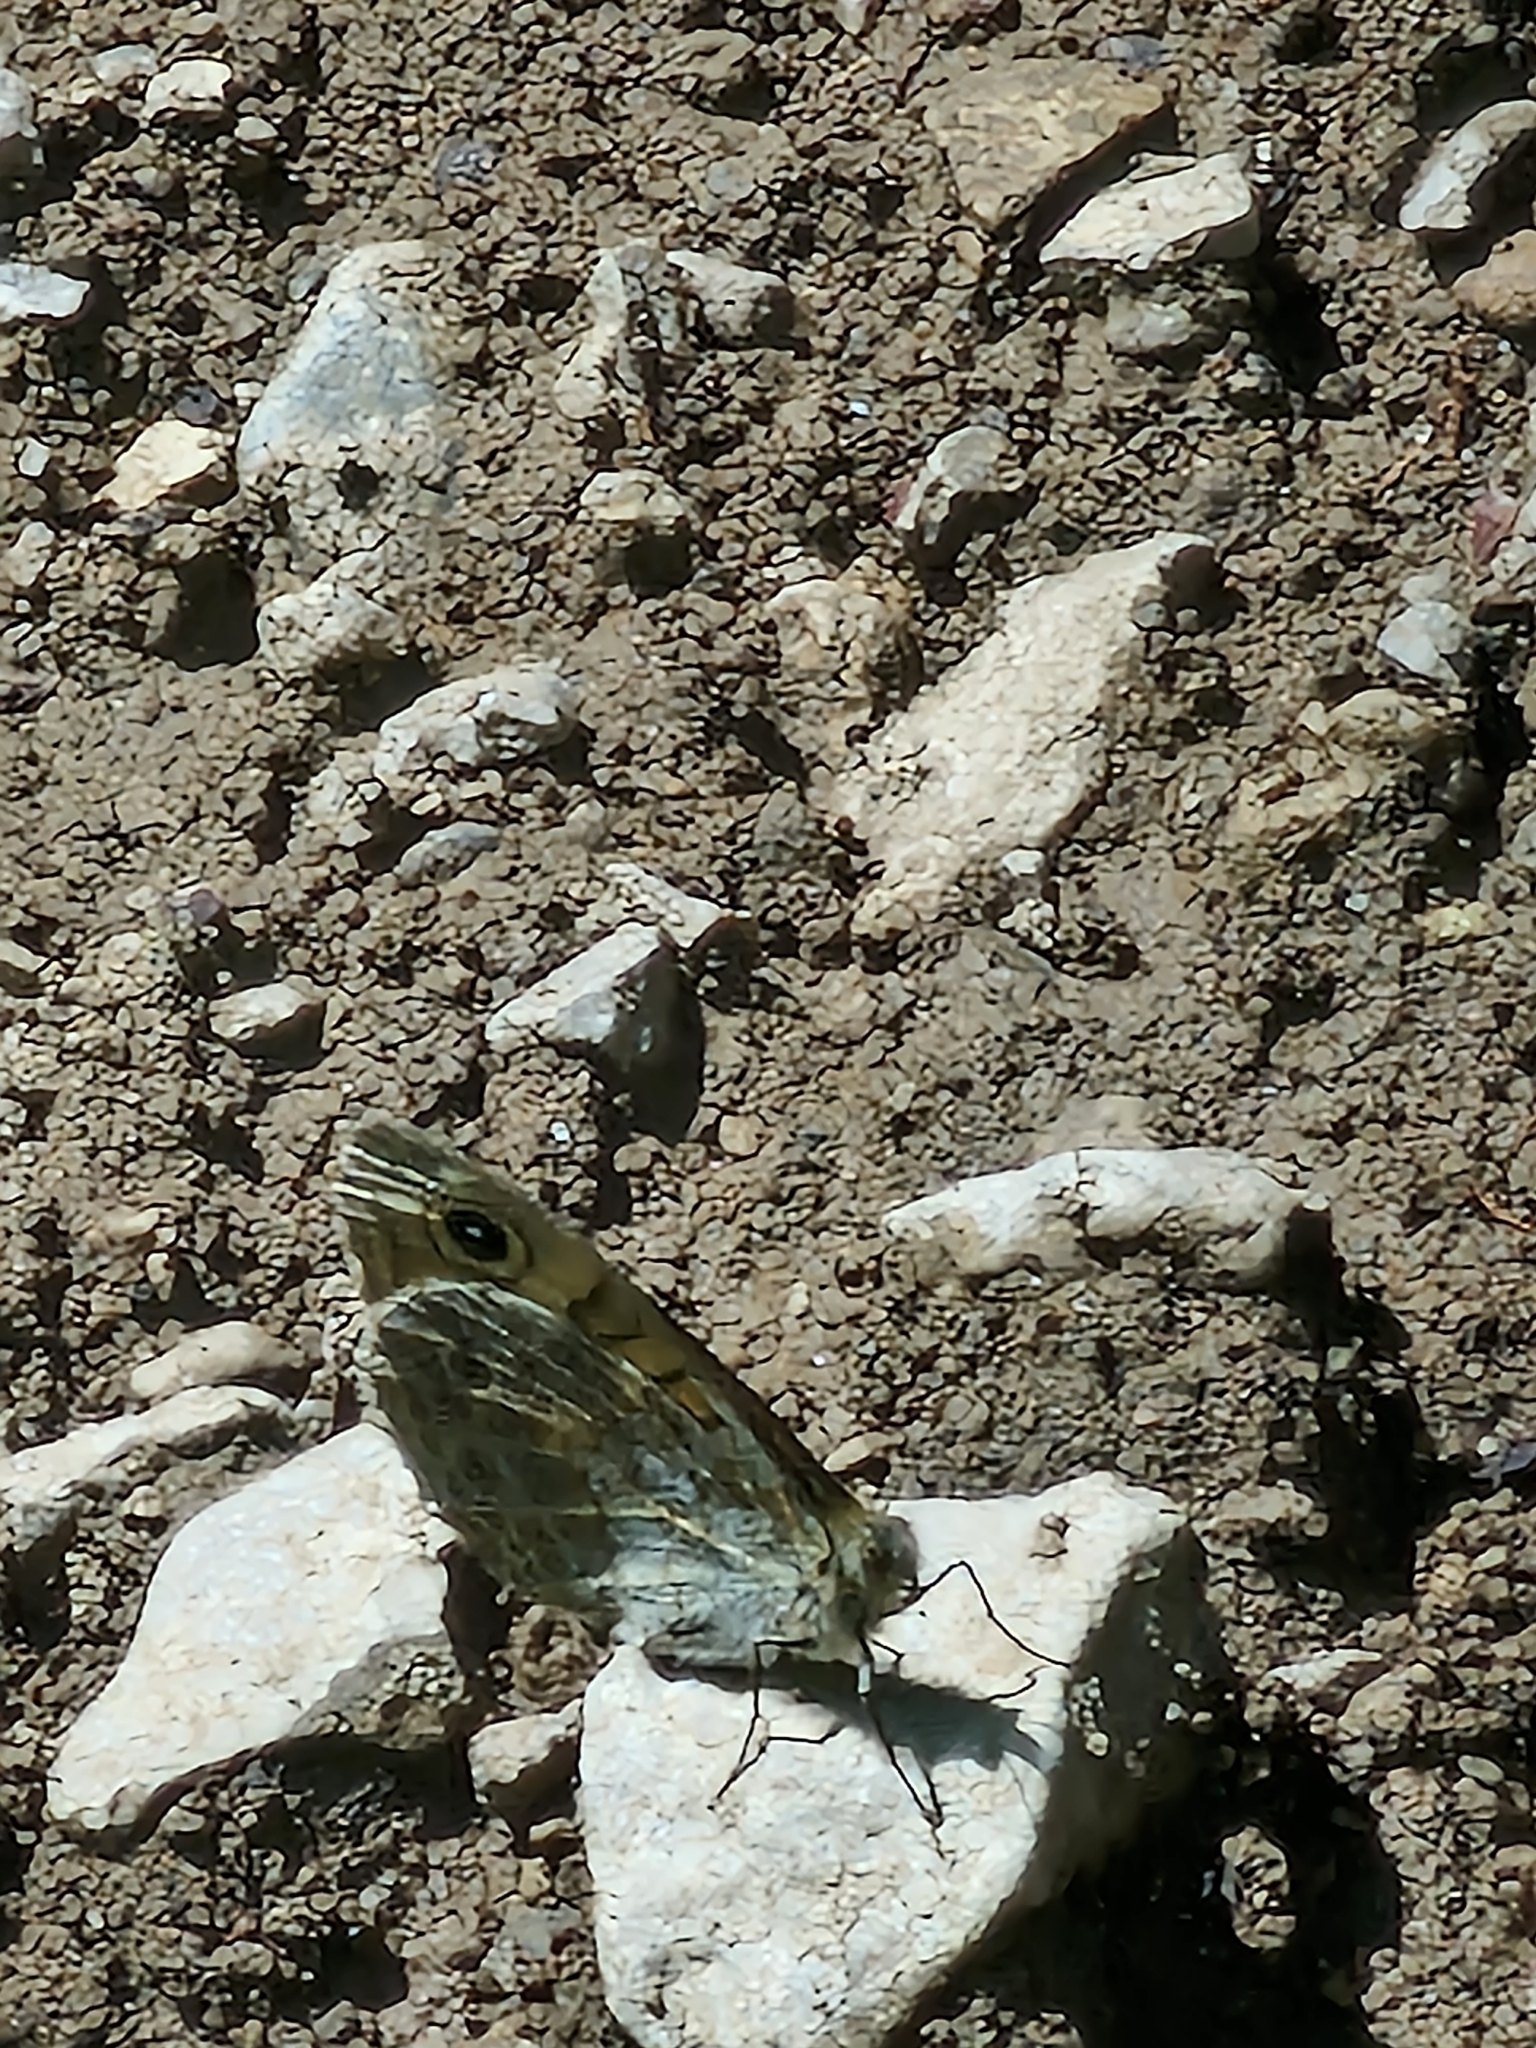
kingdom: Animalia
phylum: Arthropoda
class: Insecta
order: Lepidoptera
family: Nymphalidae
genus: Pararge
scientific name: Pararge Lasiommata megera
